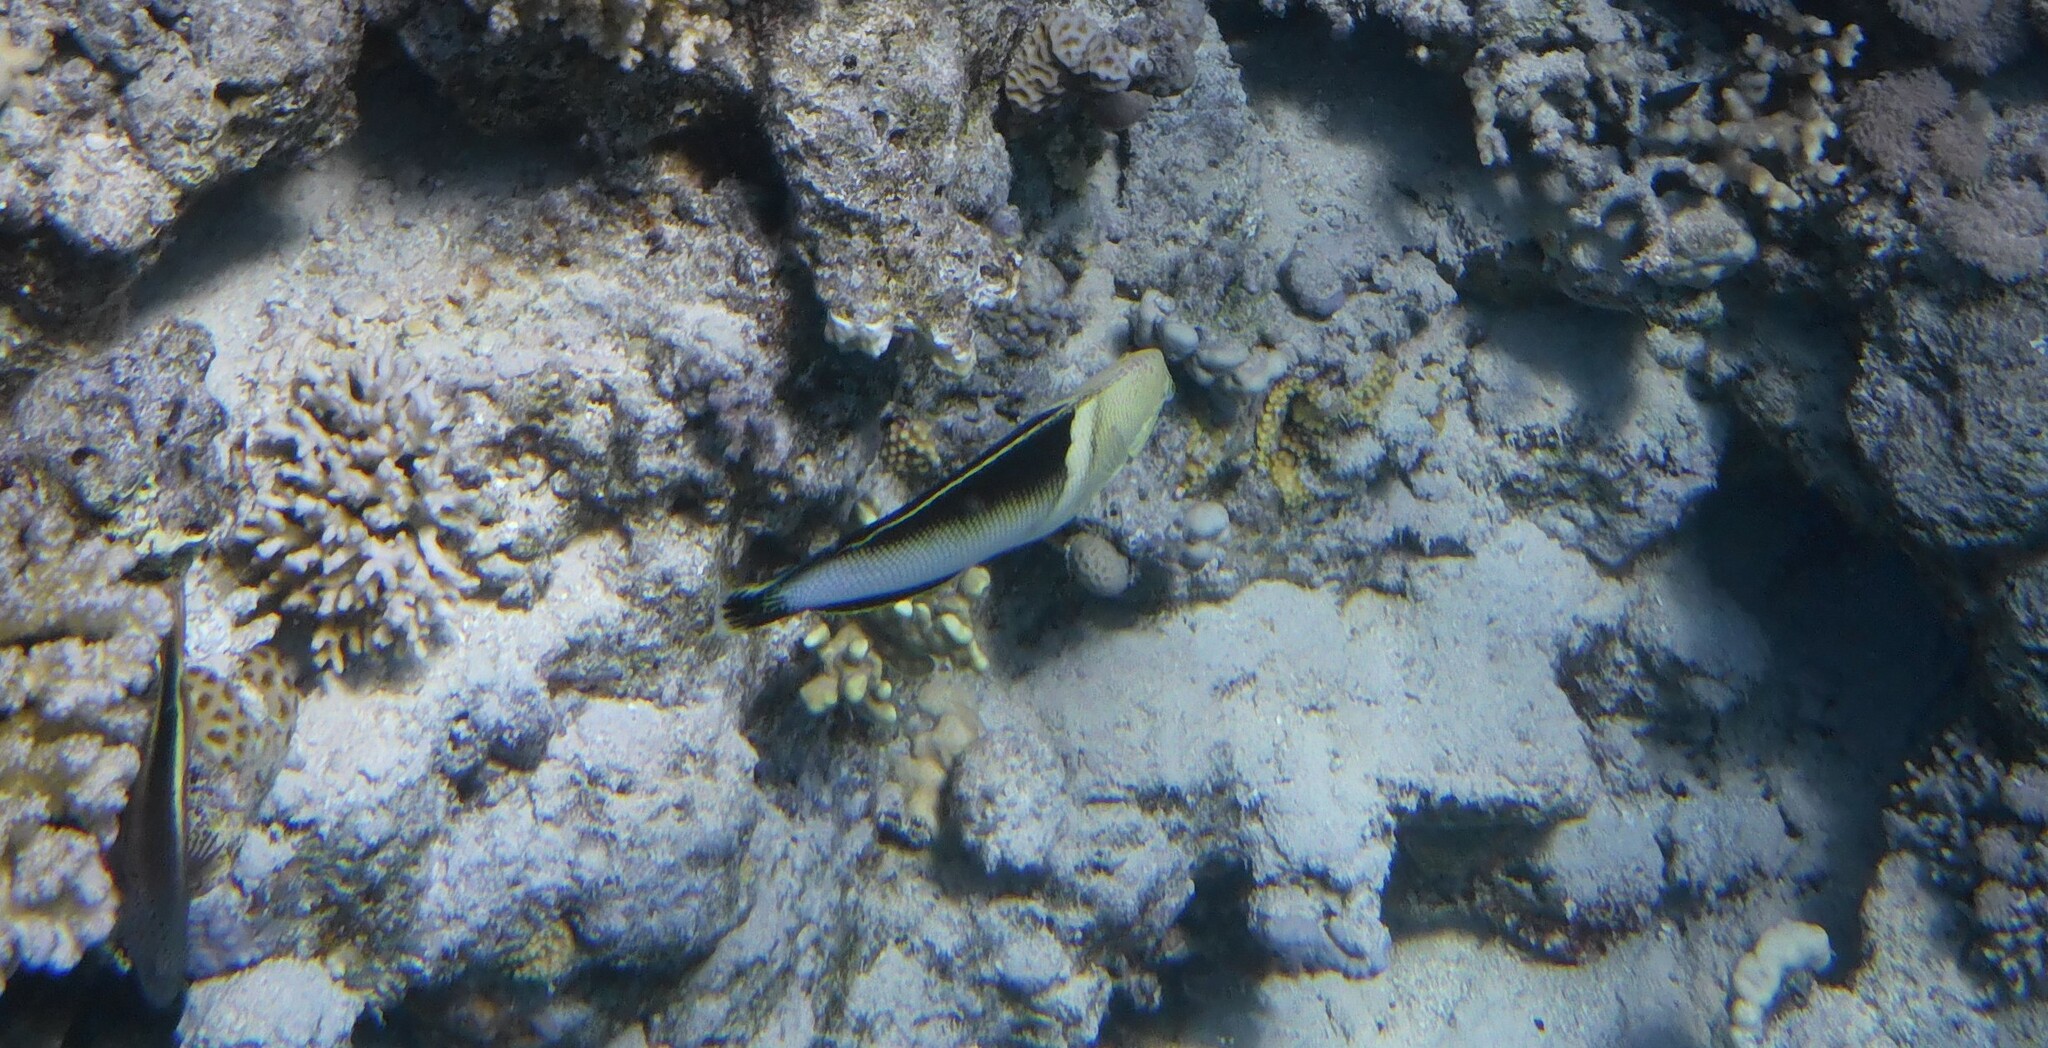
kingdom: Animalia
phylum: Chordata
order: Perciformes
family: Labridae
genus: Coris
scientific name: Coris aygula
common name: Clown coris
